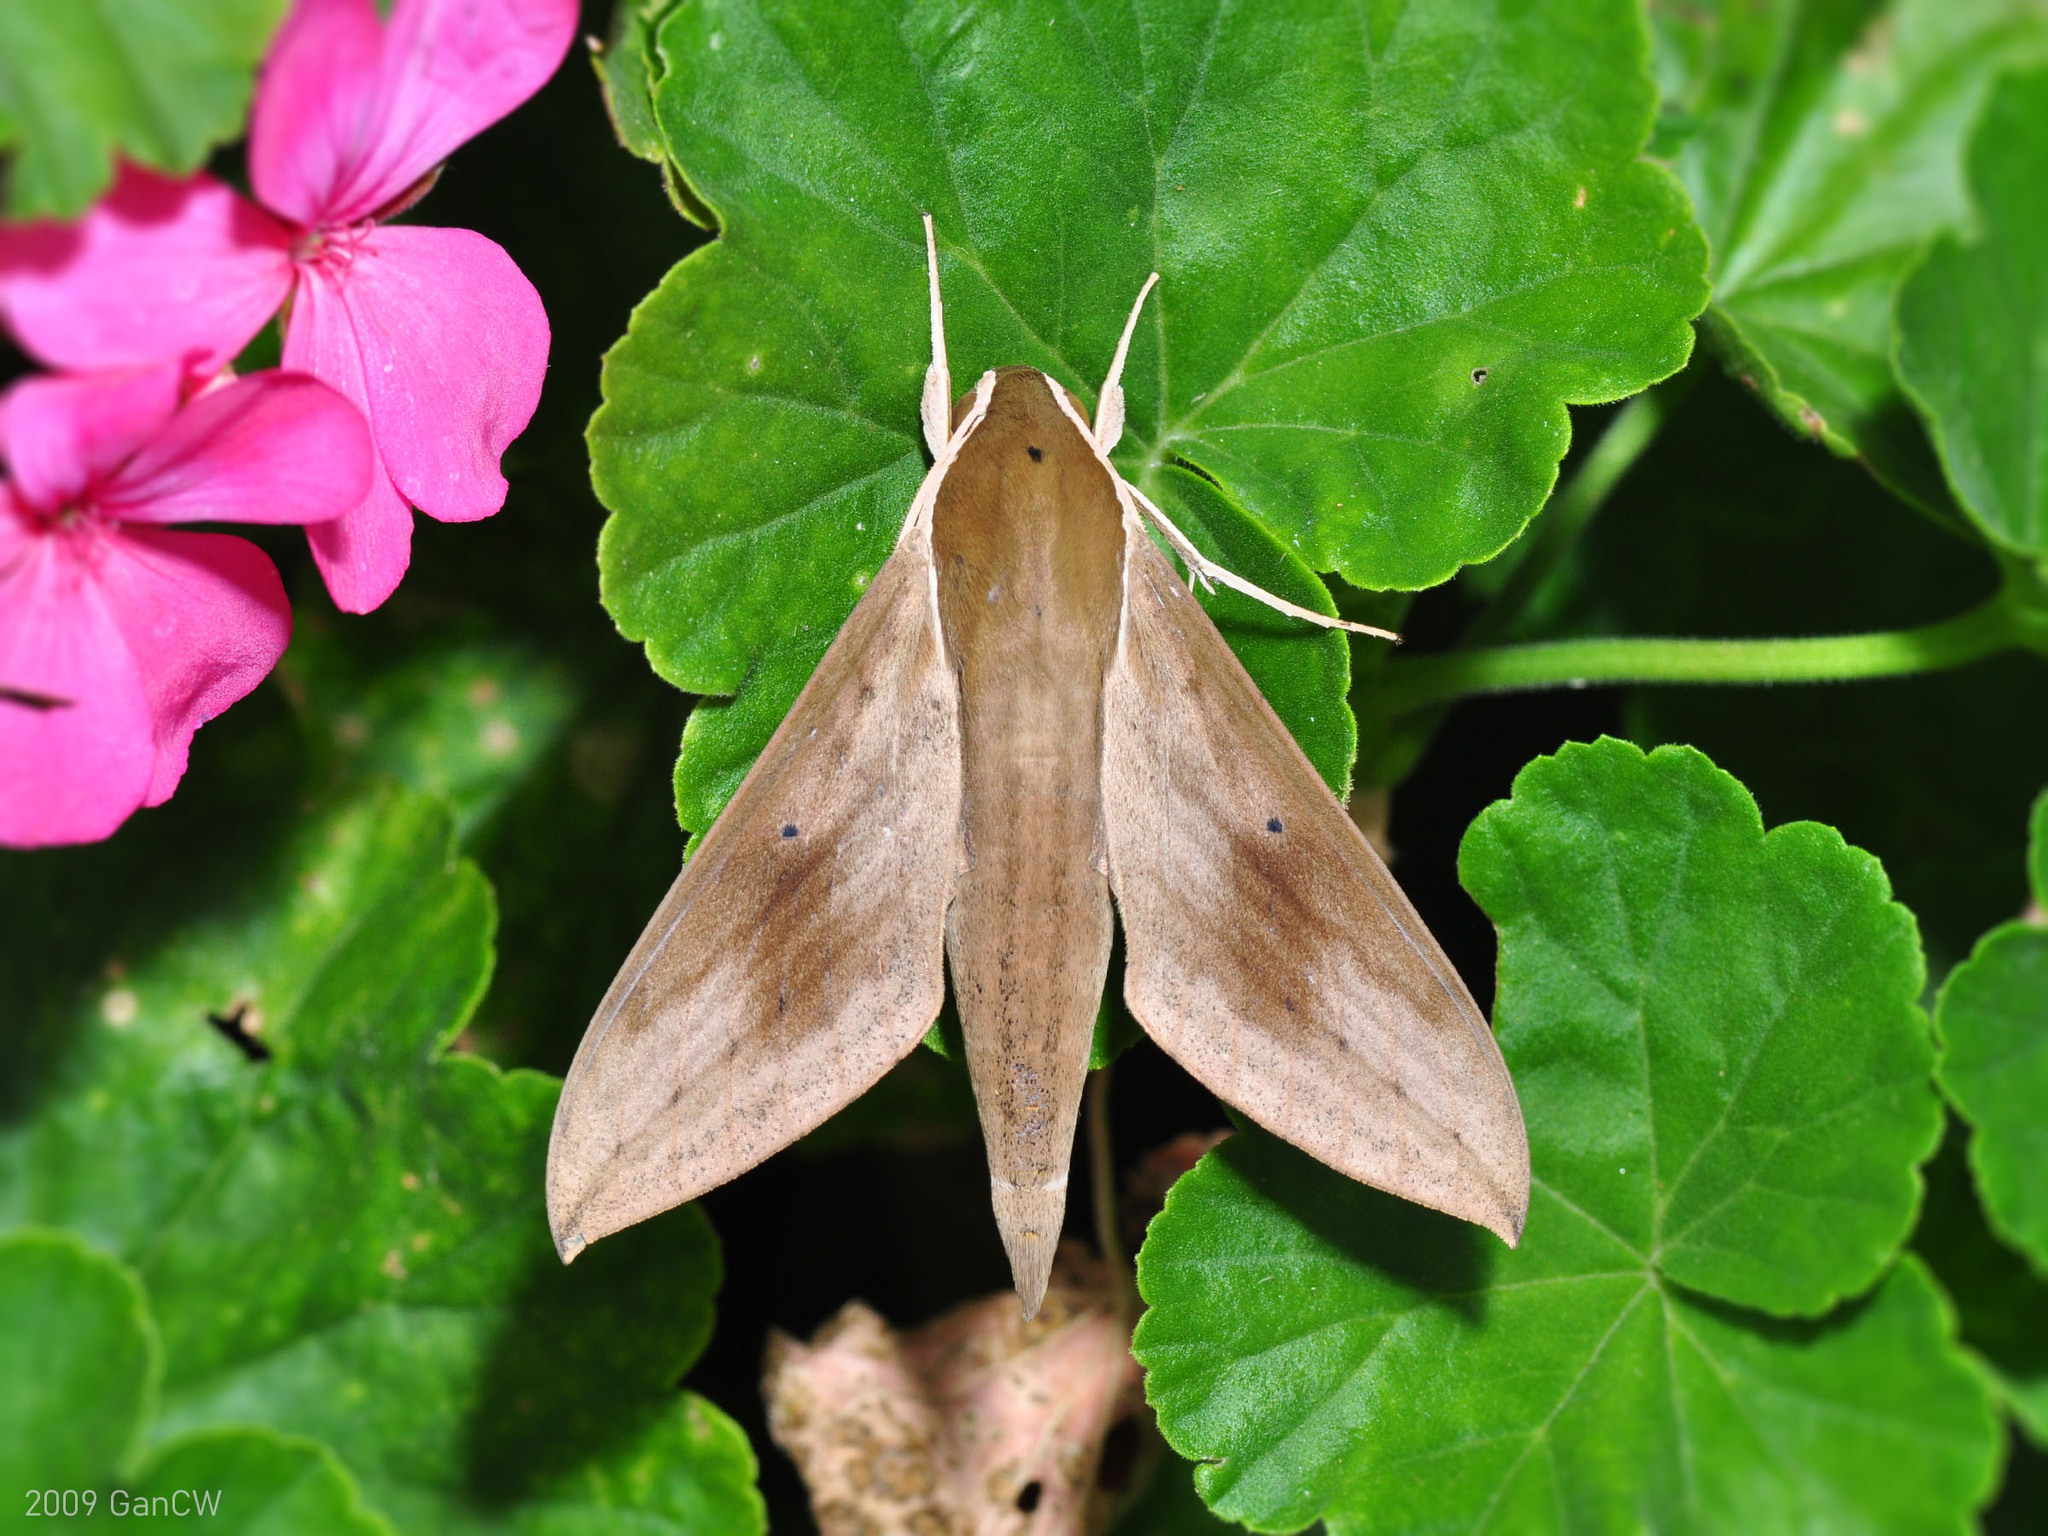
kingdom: Animalia
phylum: Arthropoda
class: Insecta
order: Lepidoptera
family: Sphingidae
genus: Theretra
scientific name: Theretra sumatrensis
